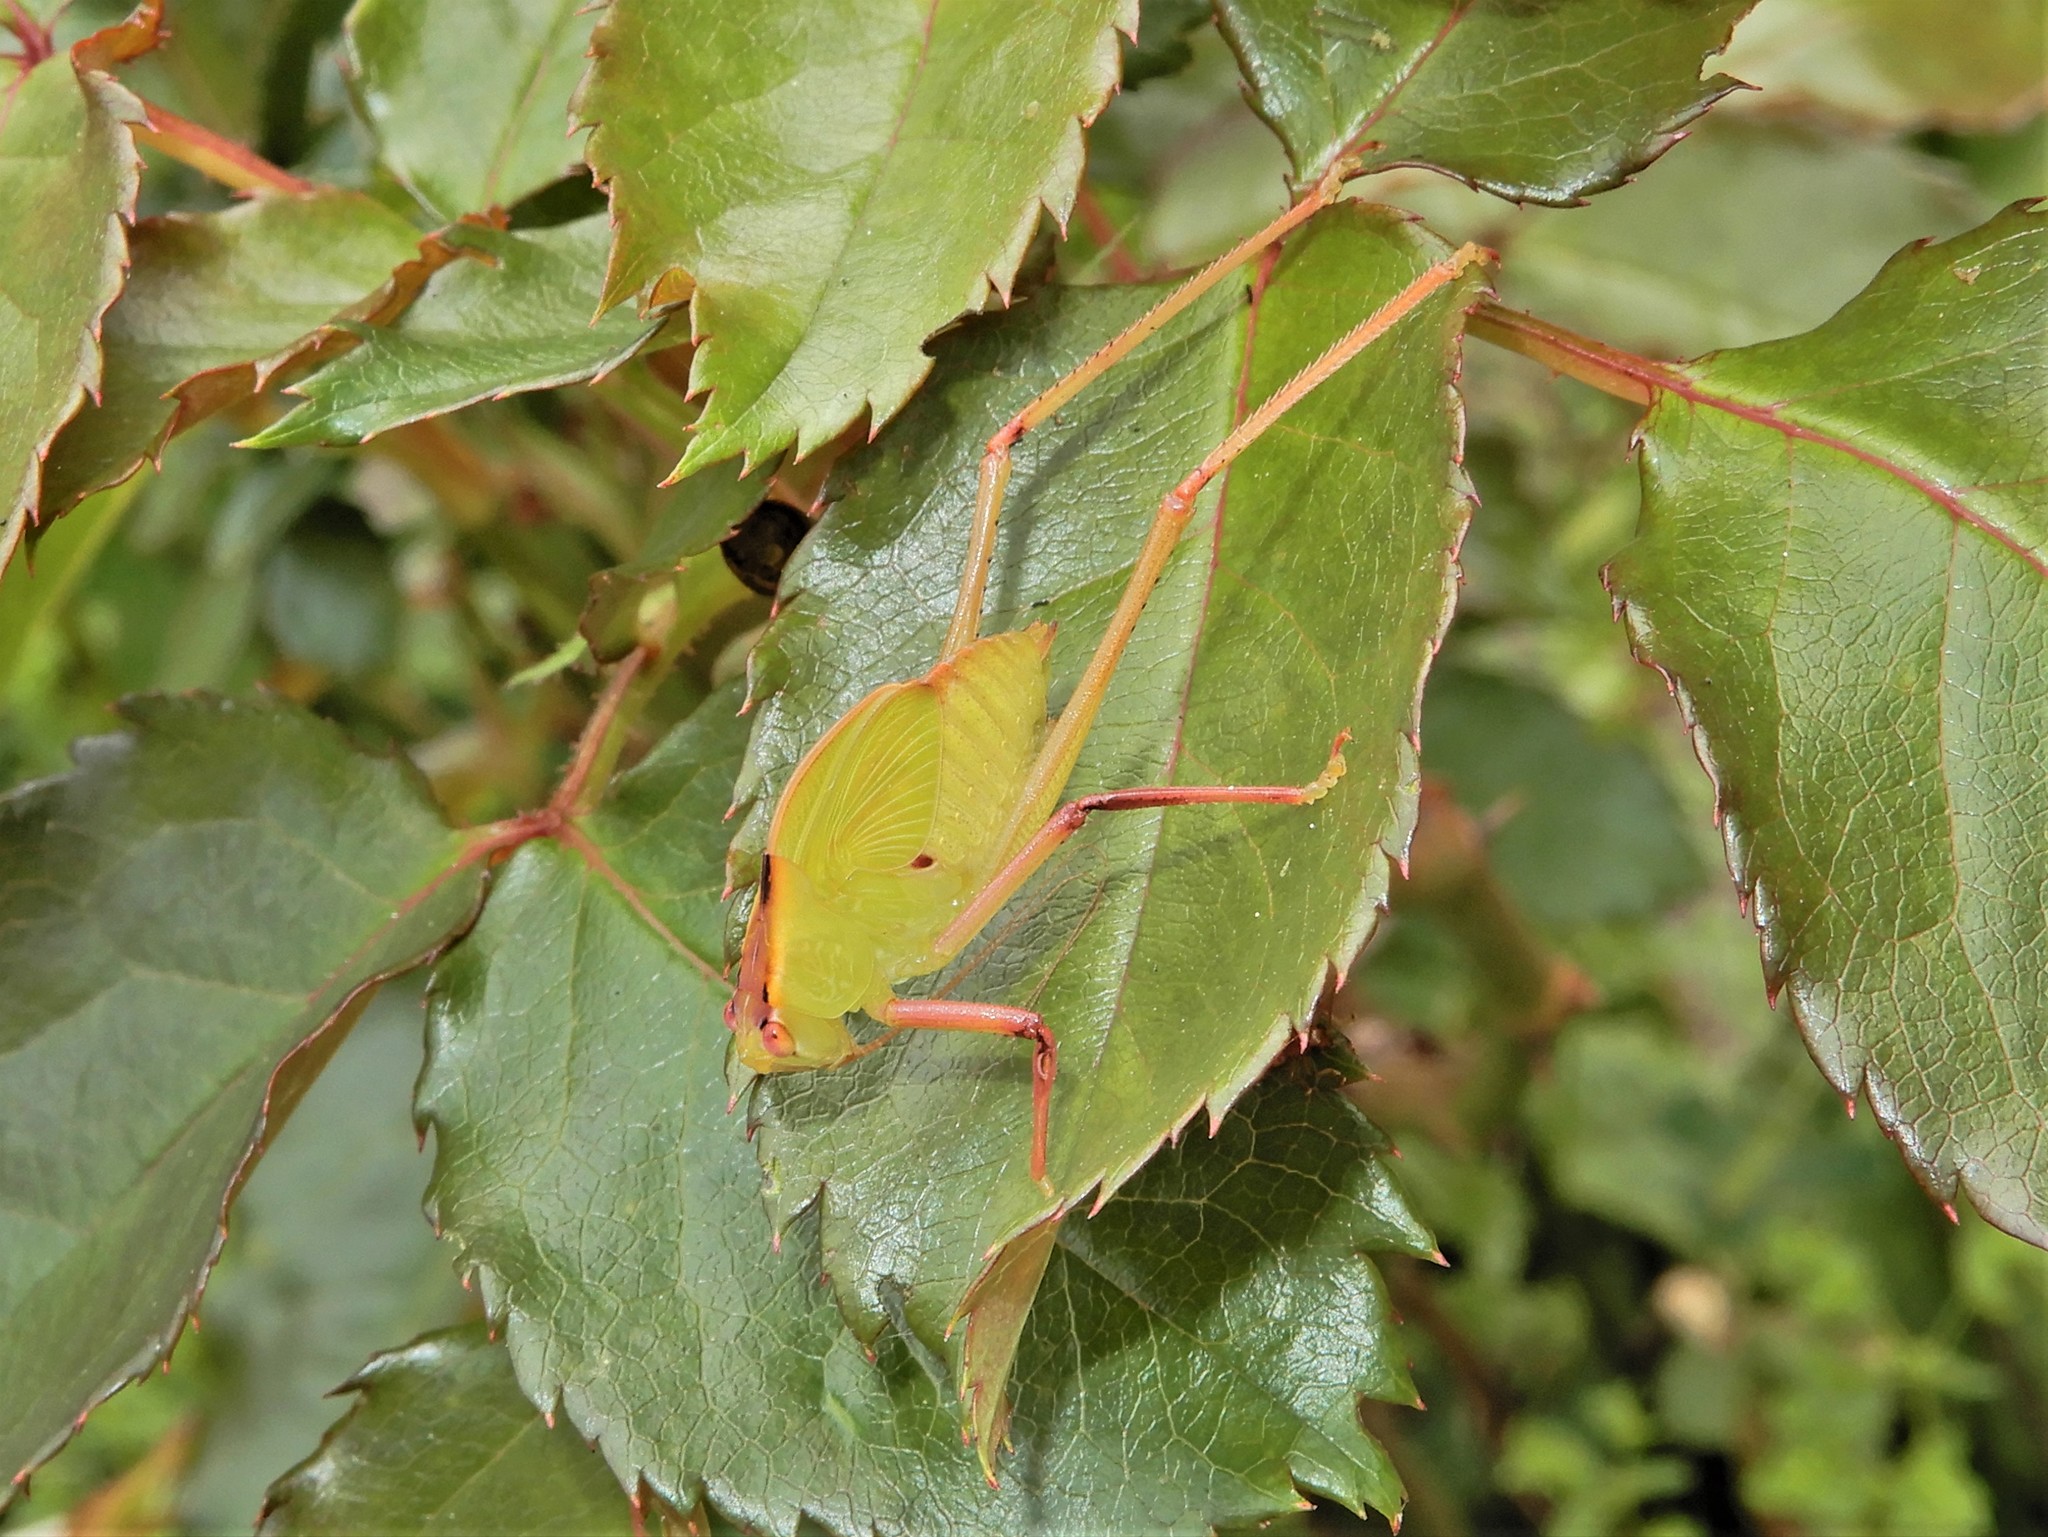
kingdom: Animalia
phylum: Arthropoda
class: Insecta
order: Orthoptera
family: Tettigoniidae
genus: Caedicia
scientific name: Caedicia simplex
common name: Common garden katydid
